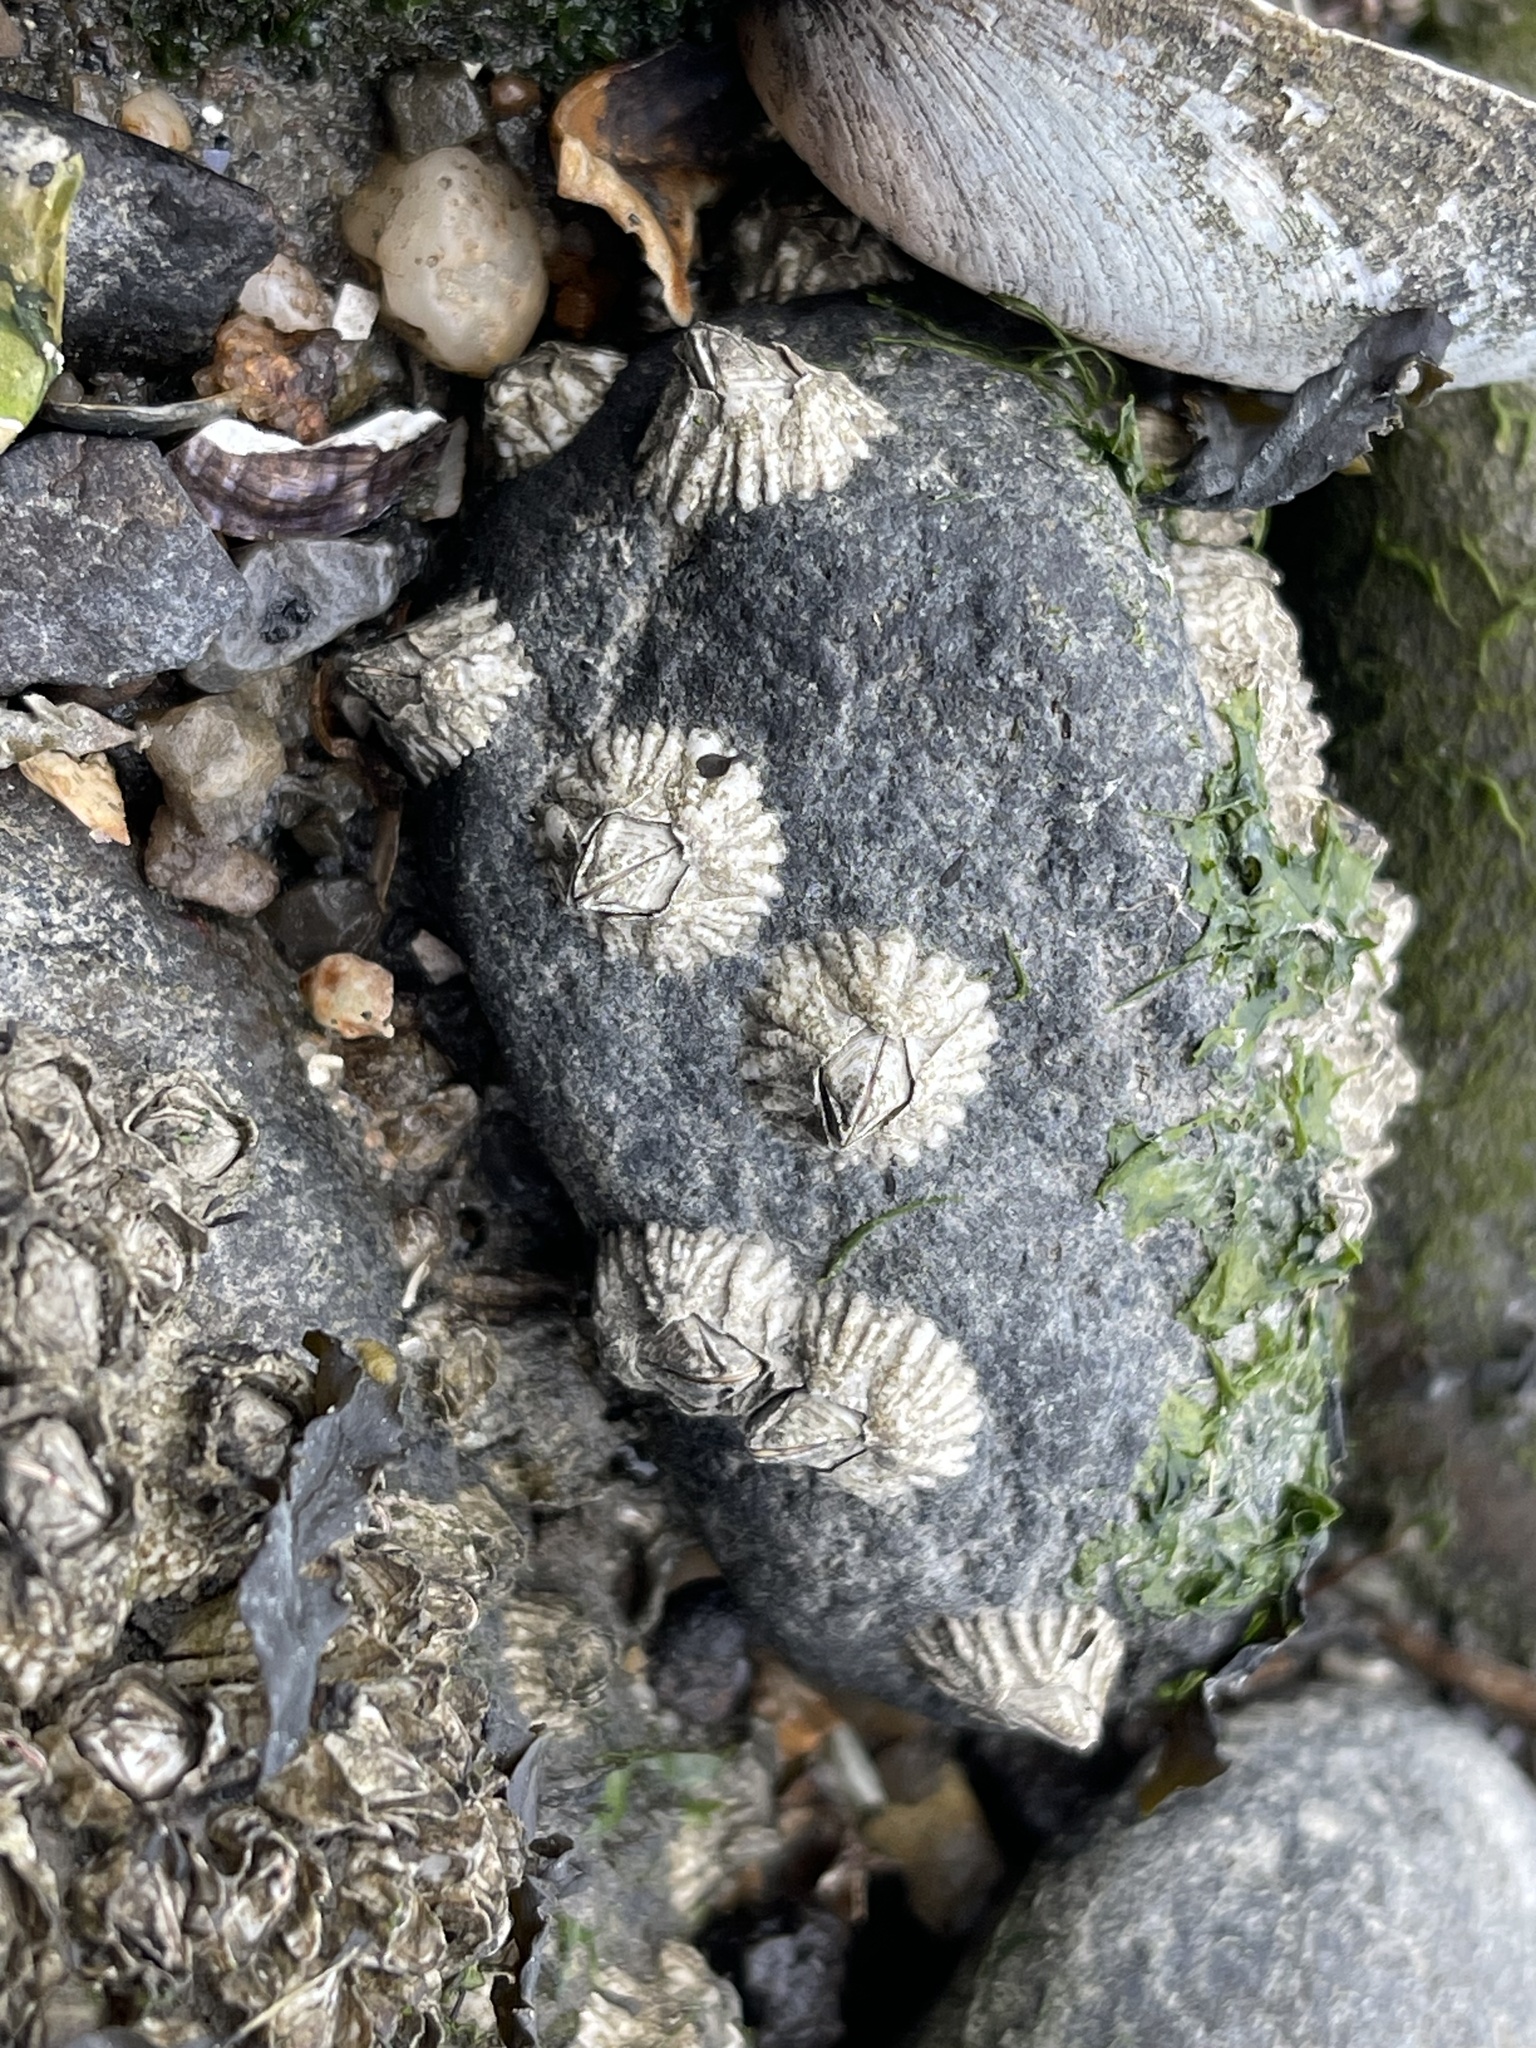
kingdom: Animalia
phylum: Arthropoda
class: Maxillopoda
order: Sessilia
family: Archaeobalanidae
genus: Semibalanus
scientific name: Semibalanus balanoides
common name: Acorn barnacle
